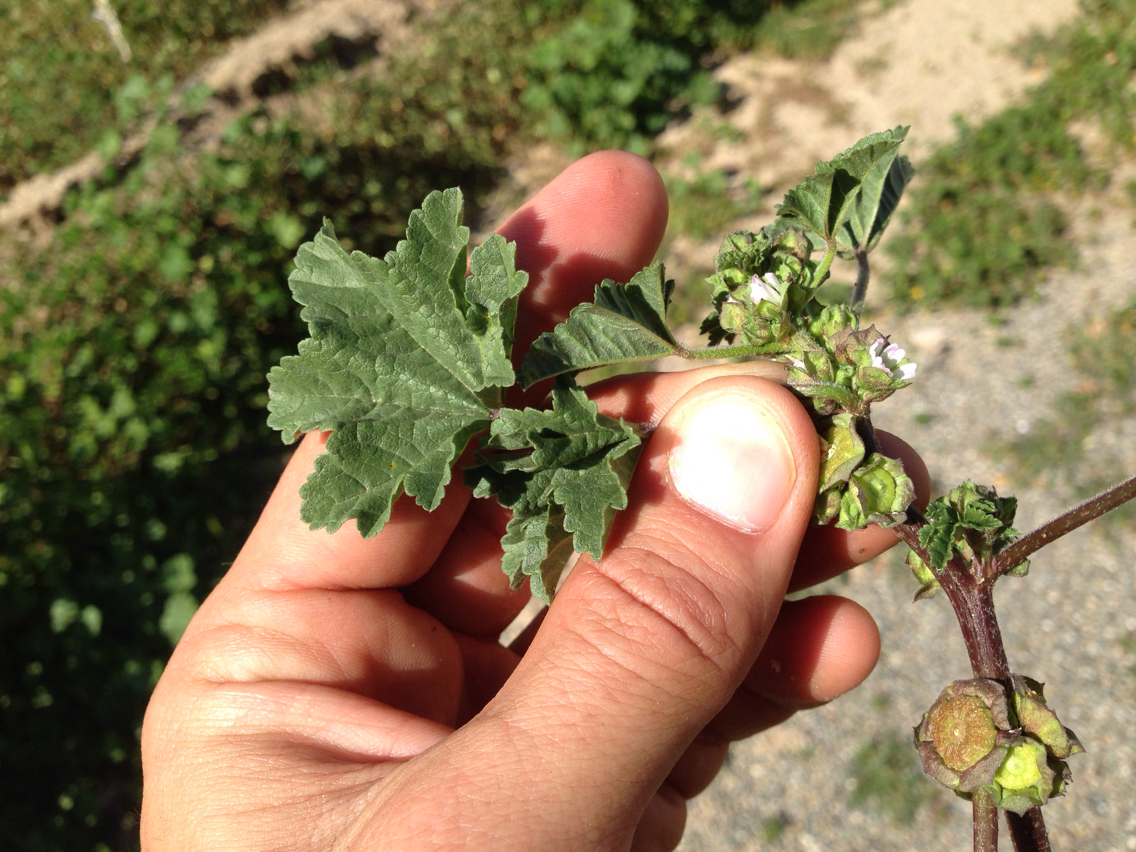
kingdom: Plantae
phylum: Tracheophyta
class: Magnoliopsida
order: Malvales
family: Malvaceae
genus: Malva
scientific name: Malva parviflora
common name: Least mallow
